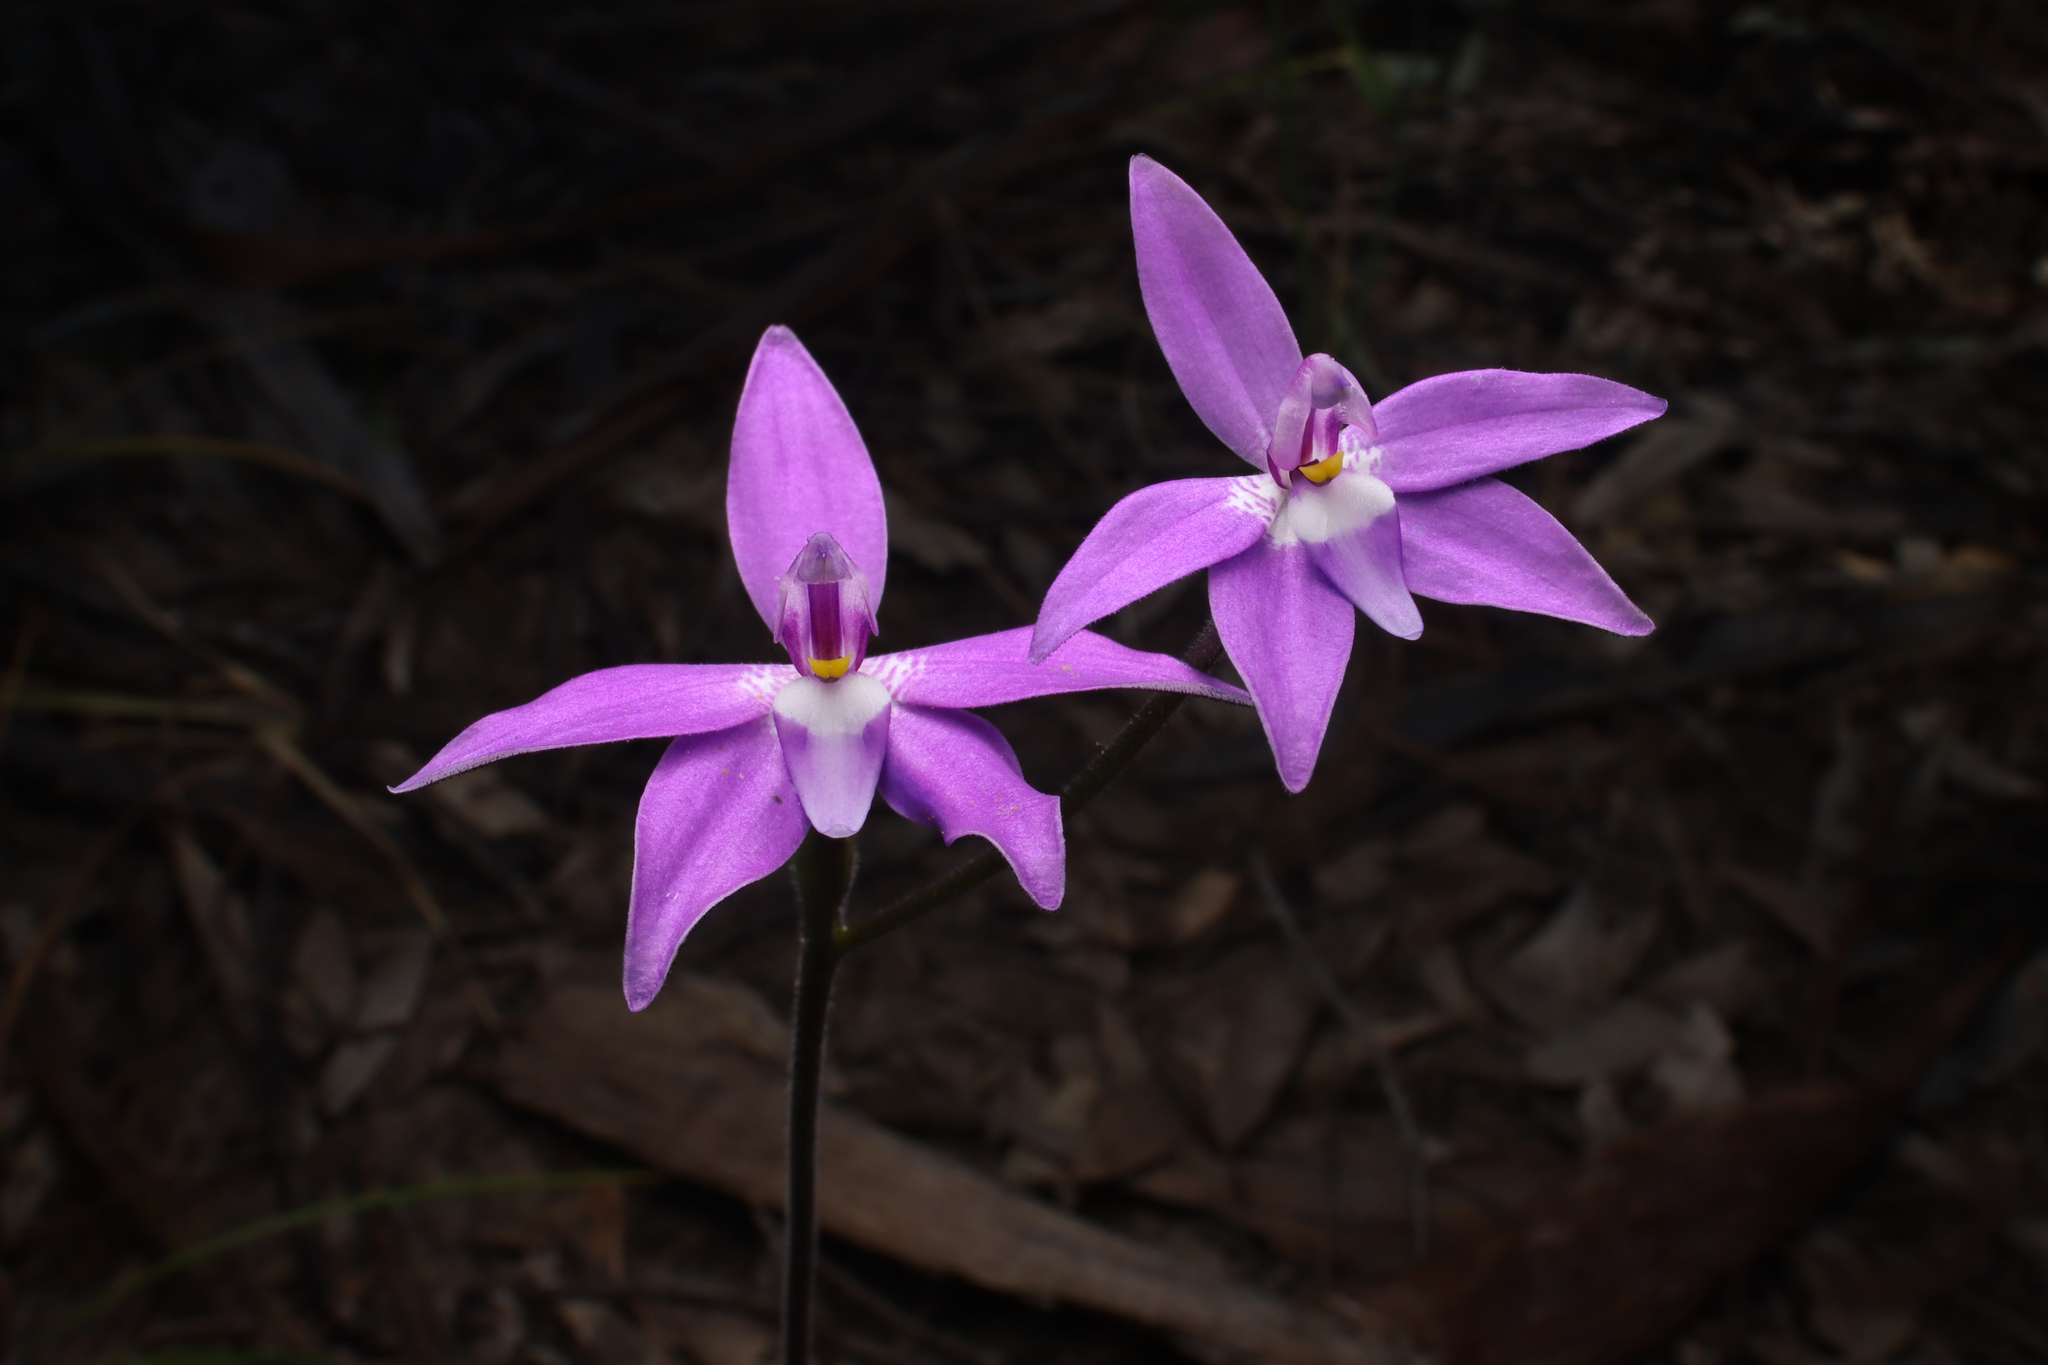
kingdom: Plantae
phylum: Tracheophyta
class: Liliopsida
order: Asparagales
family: Orchidaceae
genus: Caladenia
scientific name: Caladenia major
